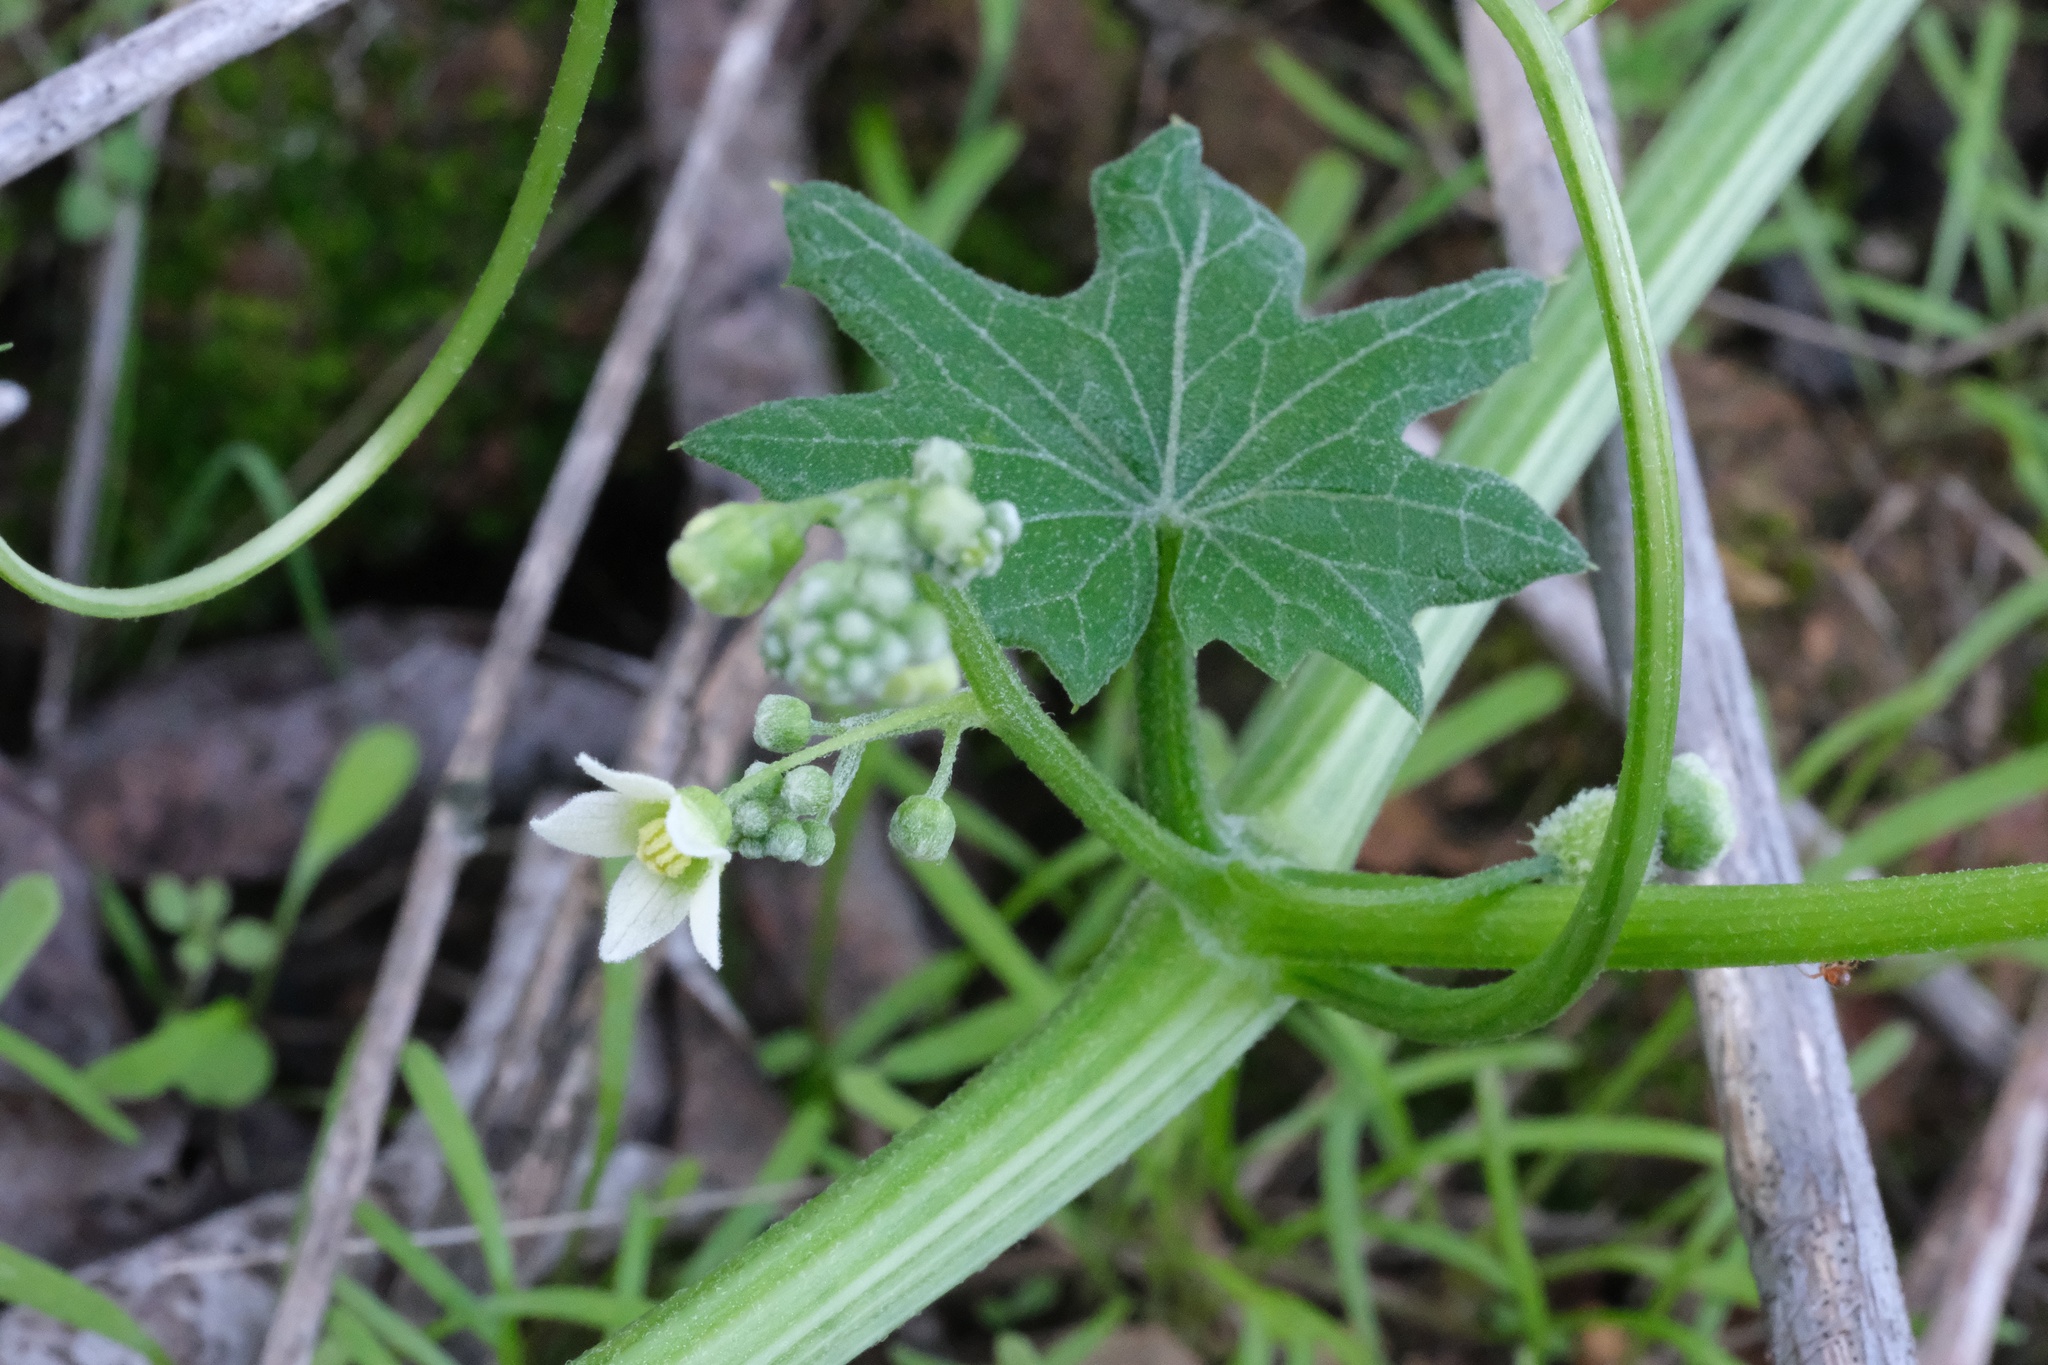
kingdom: Plantae
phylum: Tracheophyta
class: Magnoliopsida
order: Cucurbitales
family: Cucurbitaceae
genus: Marah
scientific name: Marah macrocarpa
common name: Cucamonga manroot
